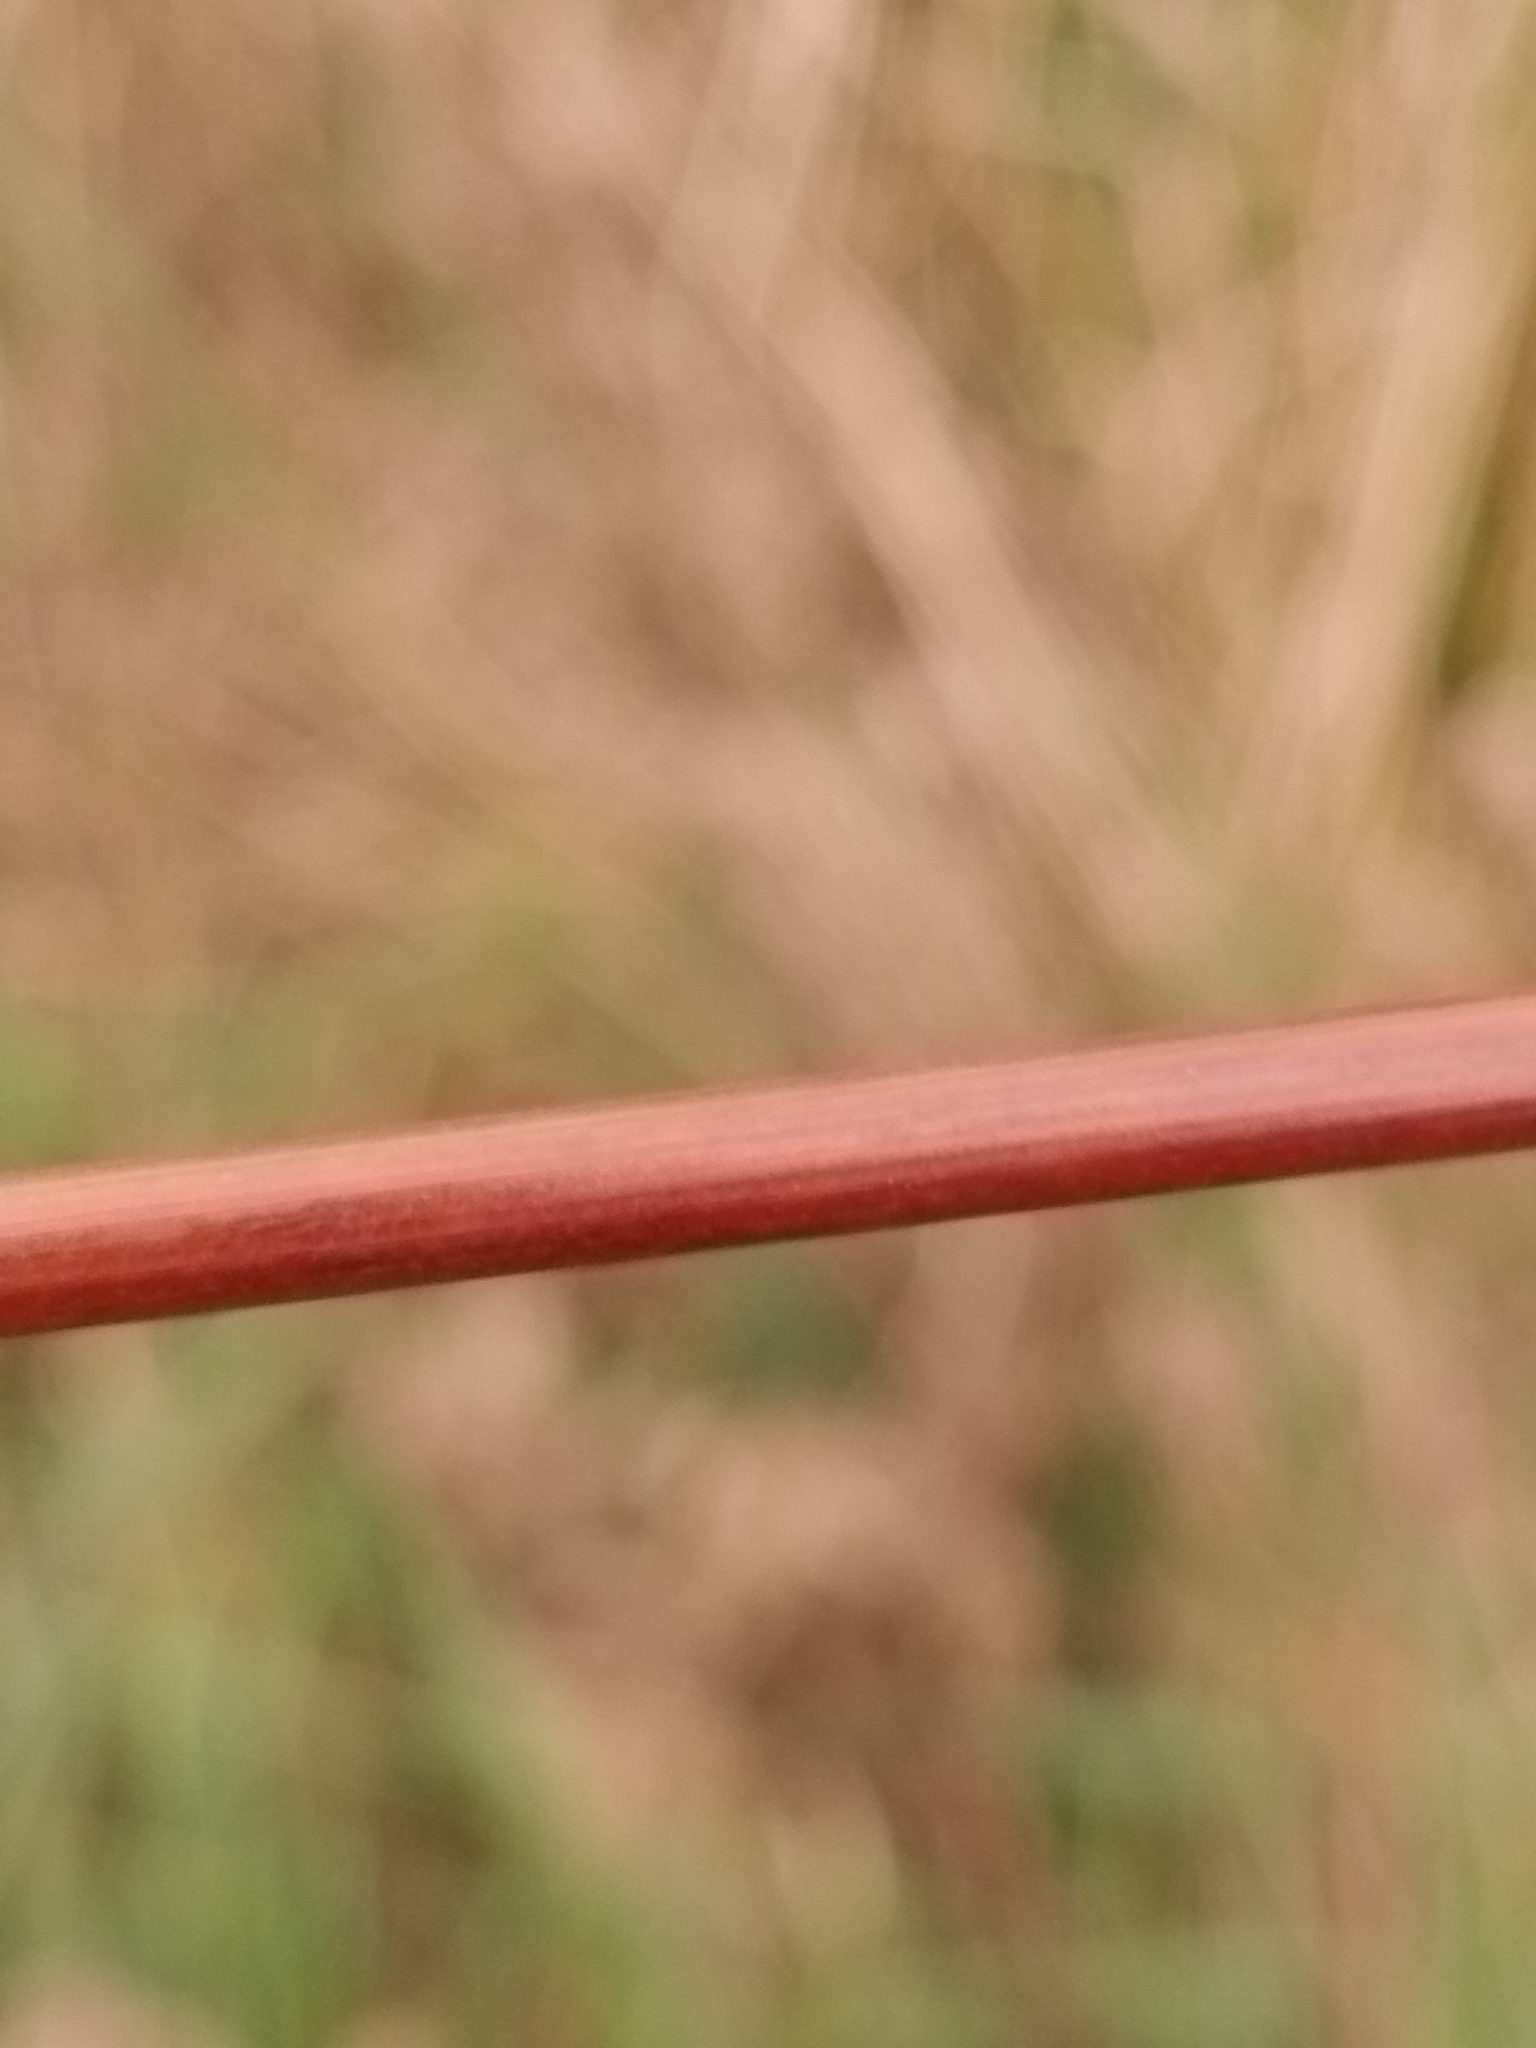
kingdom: Plantae
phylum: Tracheophyta
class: Liliopsida
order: Poales
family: Juncaceae
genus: Juncus
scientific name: Juncus sarophorus
